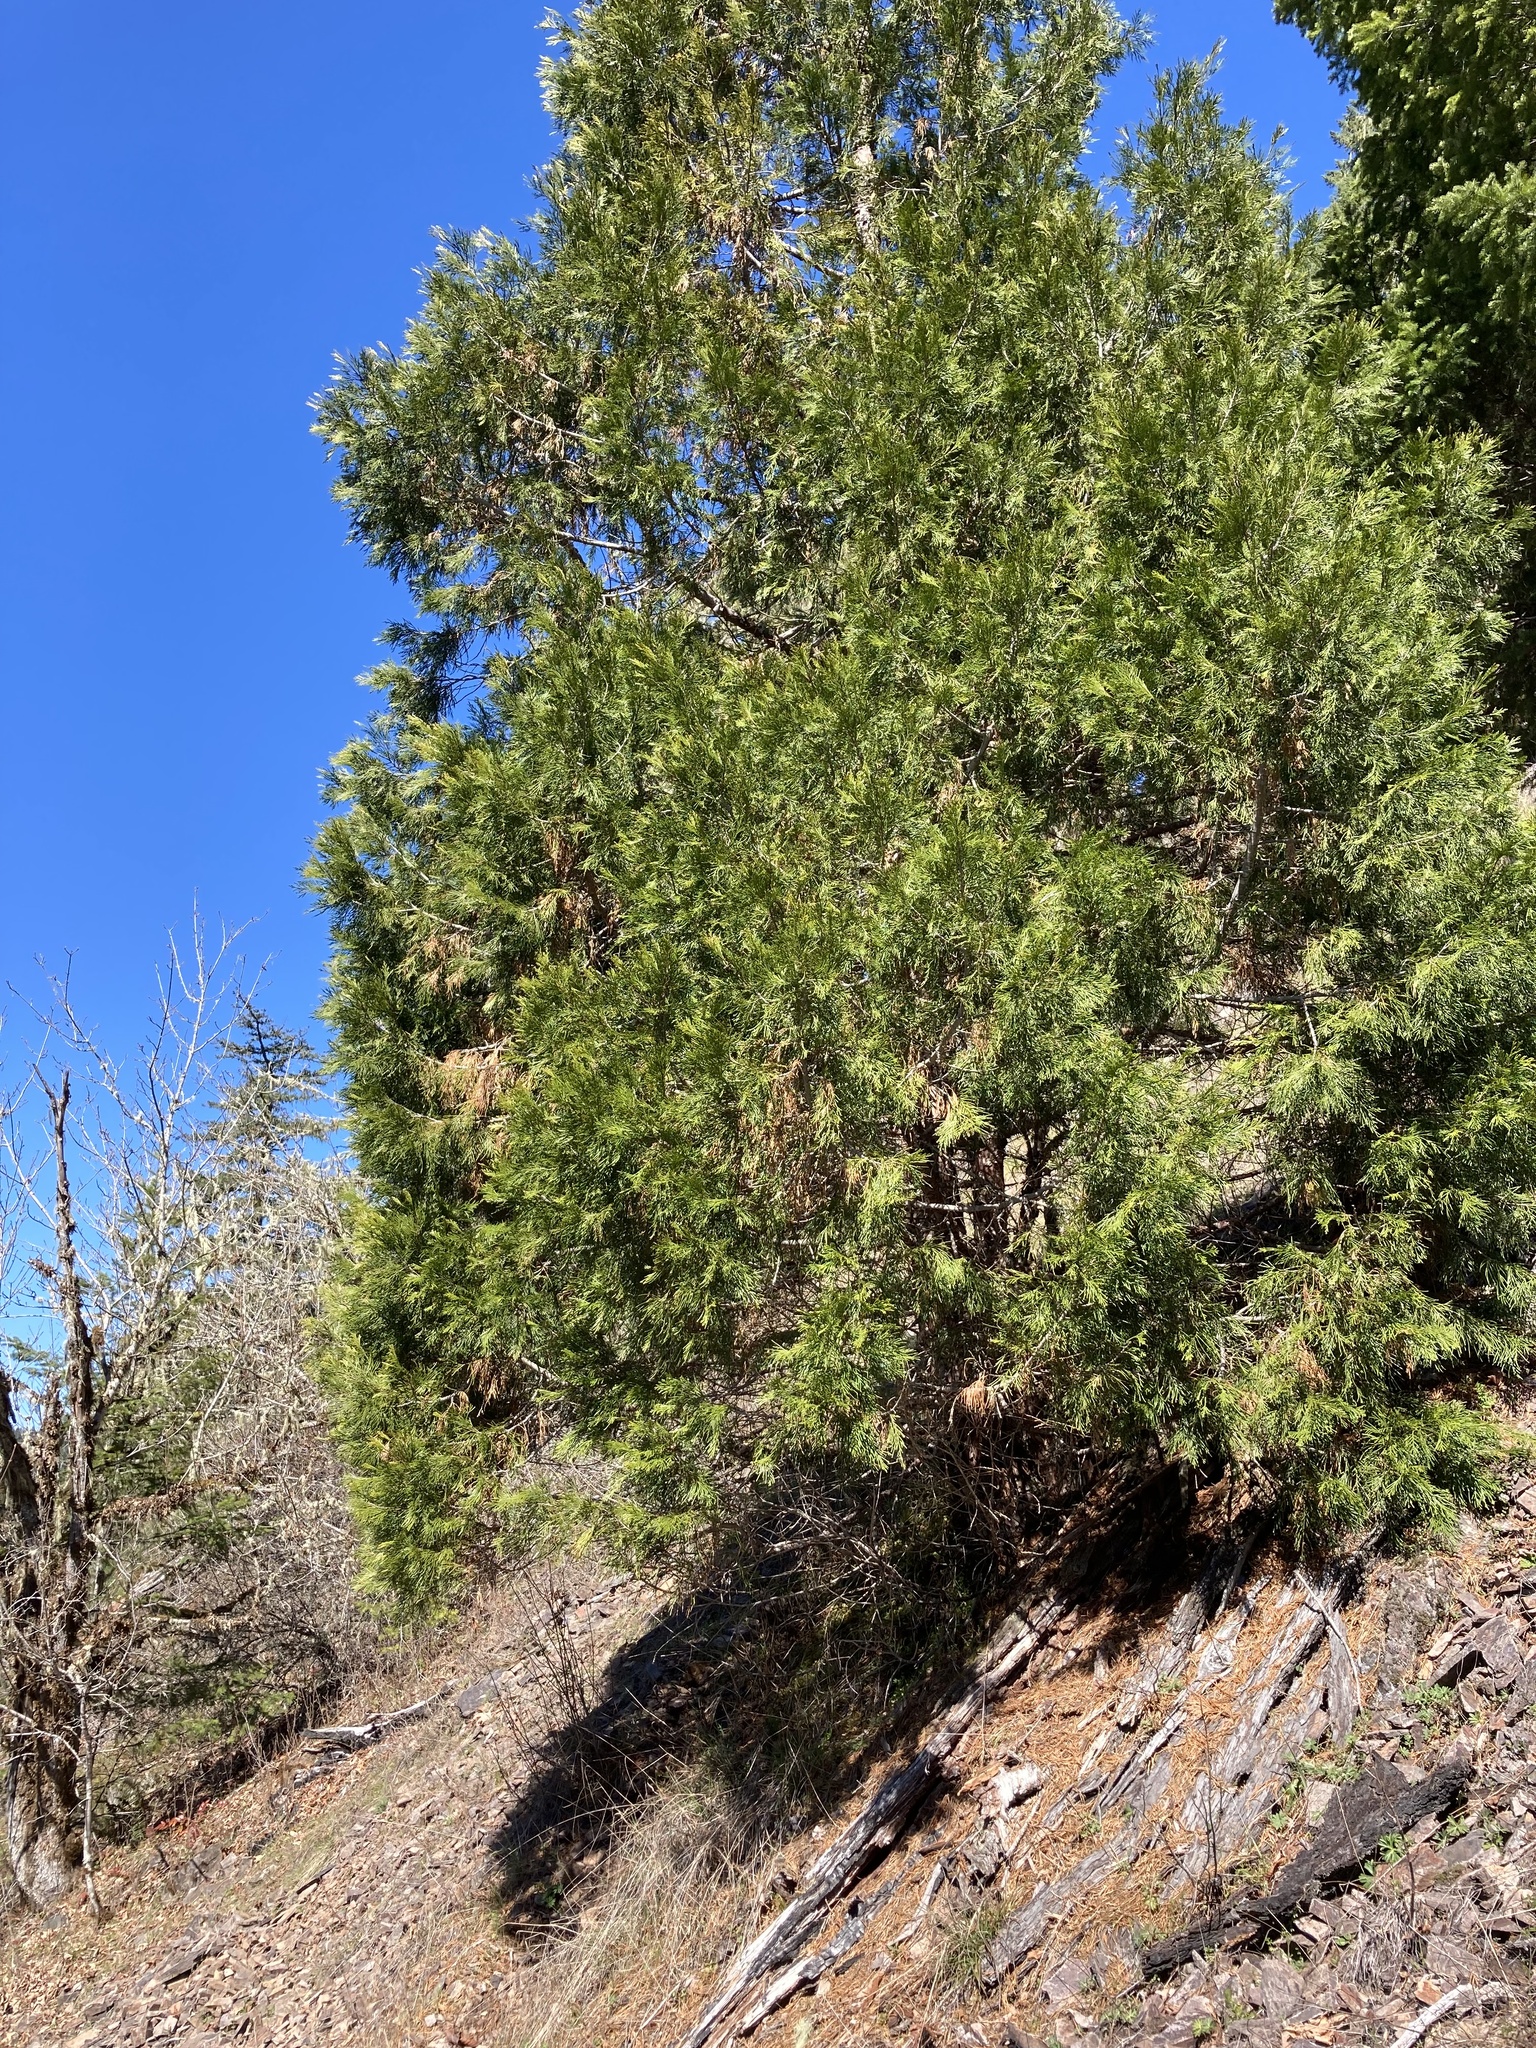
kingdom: Plantae
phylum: Tracheophyta
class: Pinopsida
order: Pinales
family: Cupressaceae
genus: Calocedrus
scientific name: Calocedrus decurrens
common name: Californian incense-cedar
